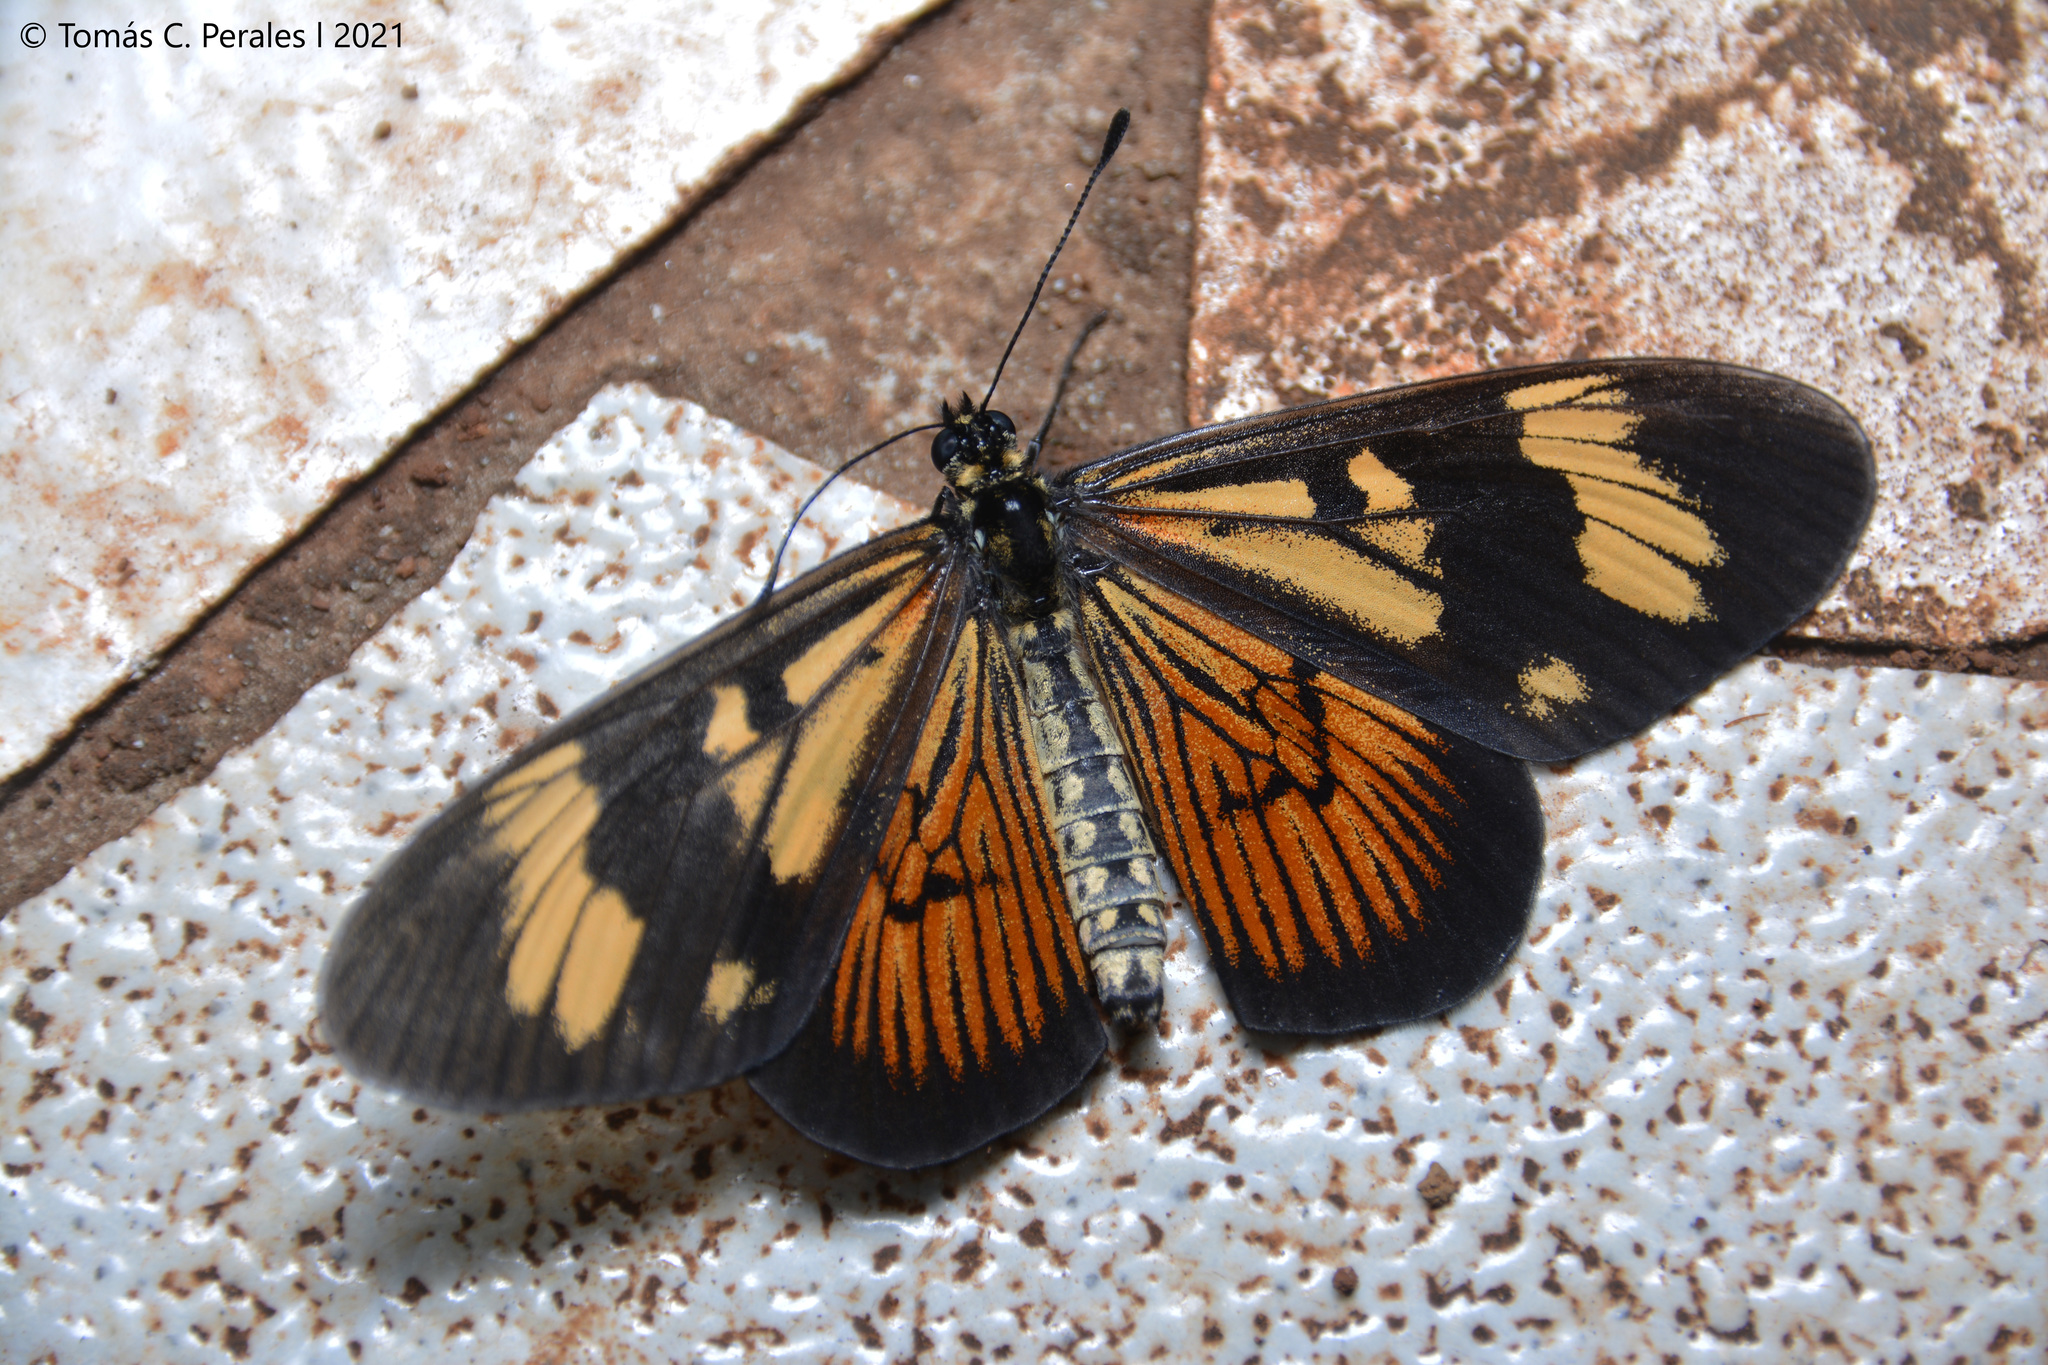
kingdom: Animalia
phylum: Arthropoda
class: Insecta
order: Lepidoptera
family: Nymphalidae
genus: Actinote
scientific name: Actinote pellenea
